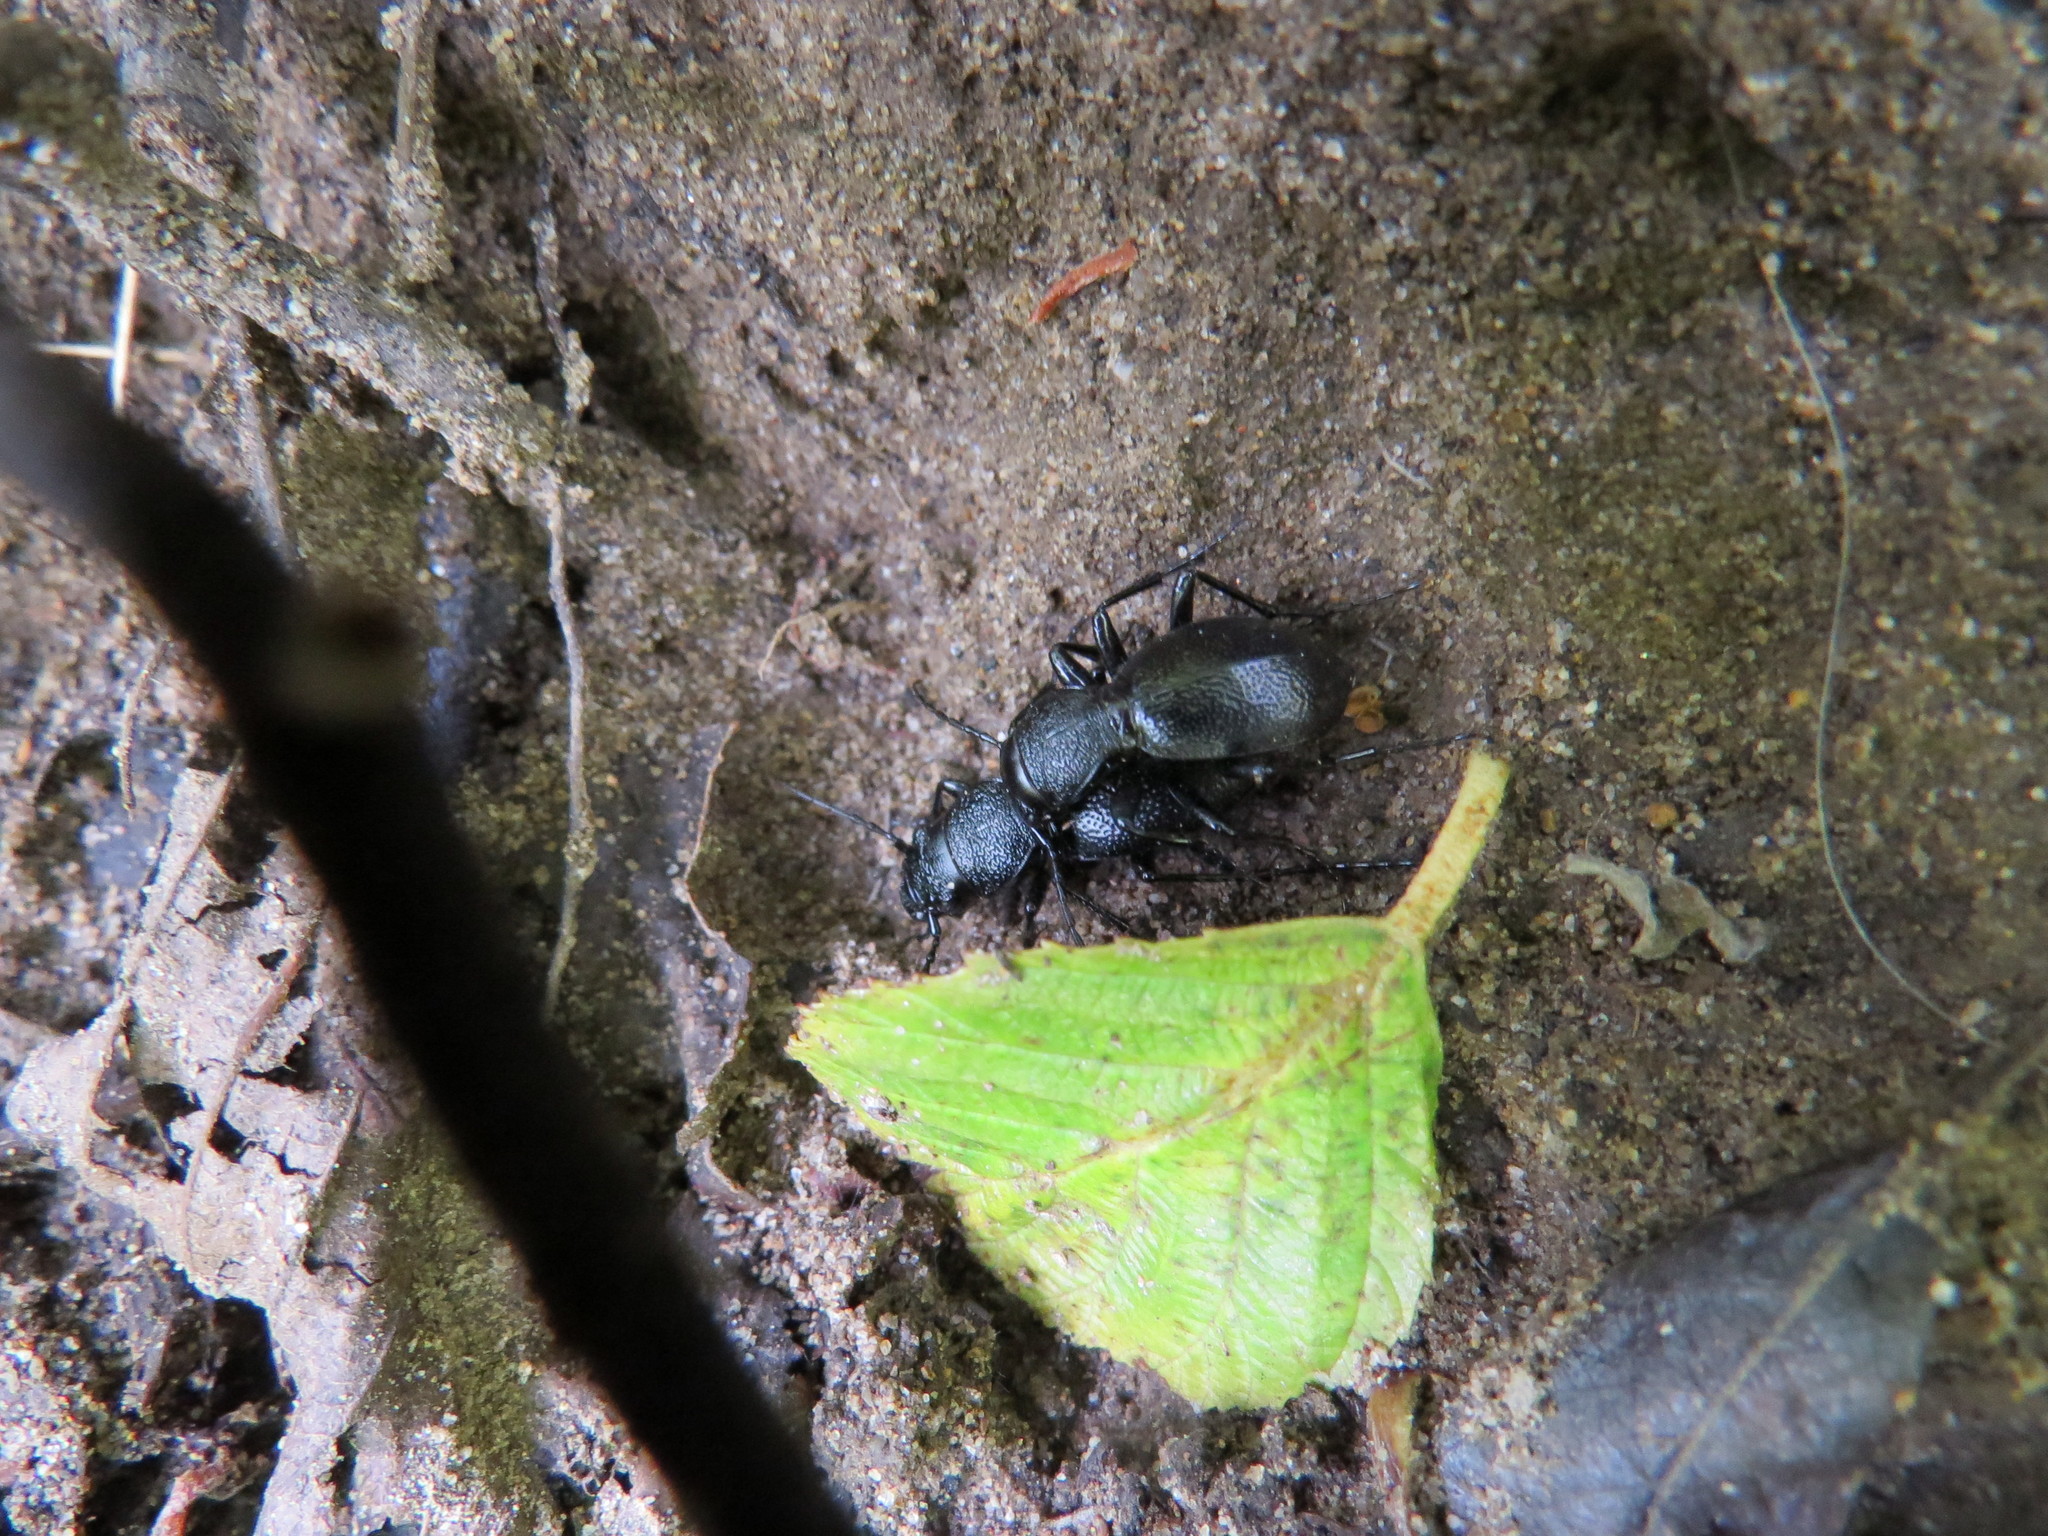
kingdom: Animalia
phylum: Arthropoda
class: Insecta
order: Coleoptera
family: Carabidae
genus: Omus
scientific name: Omus californicus
